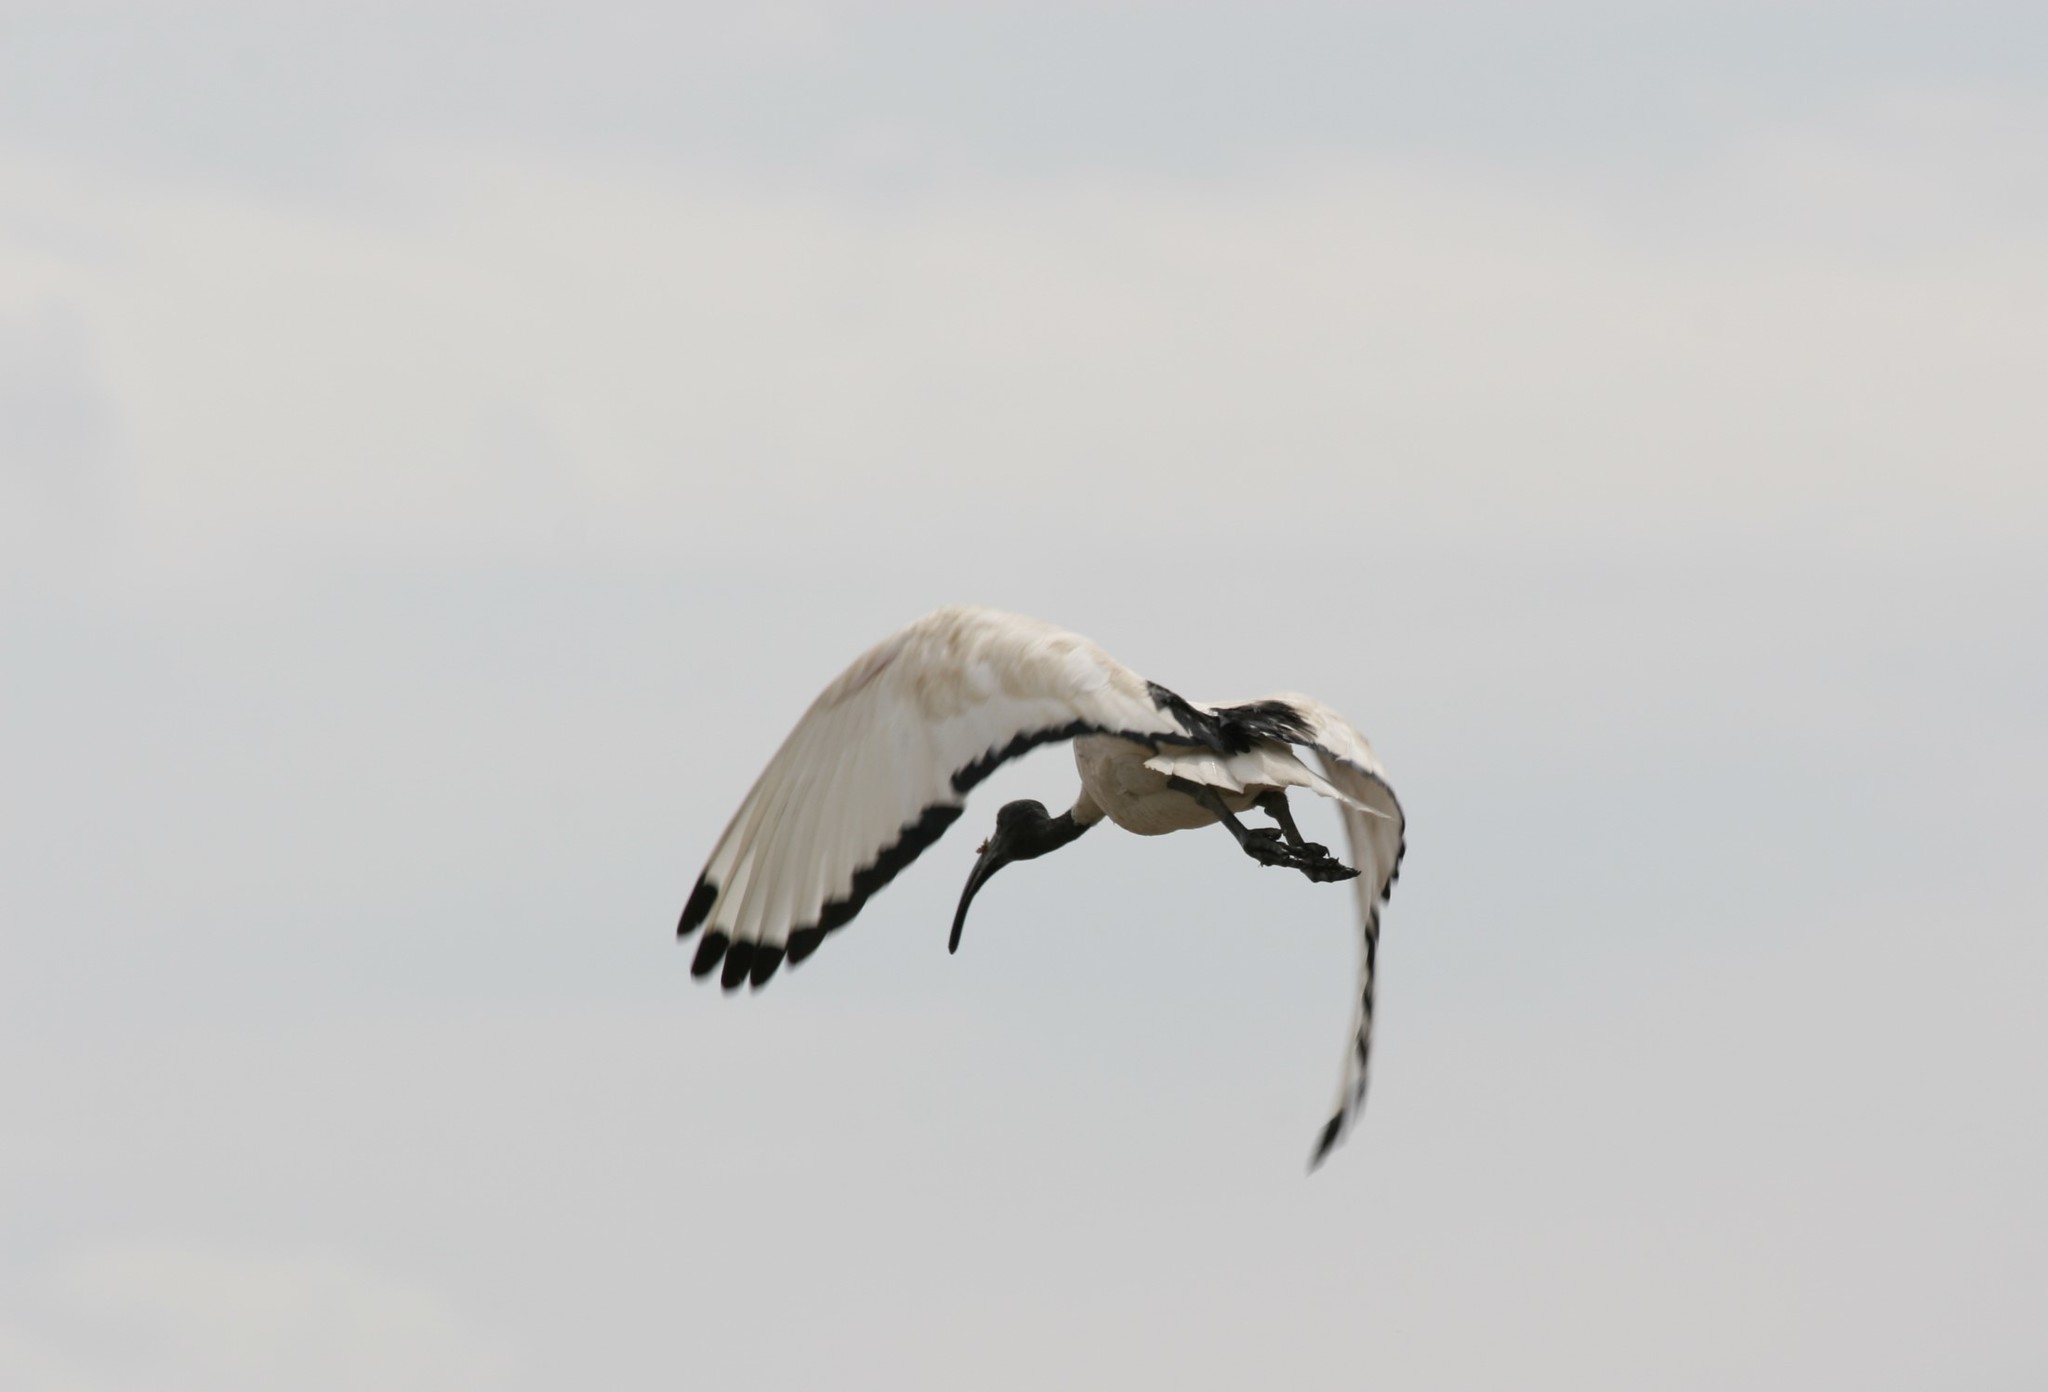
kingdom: Animalia
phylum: Chordata
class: Aves
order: Pelecaniformes
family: Threskiornithidae
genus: Threskiornis
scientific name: Threskiornis aethiopicus
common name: Sacred ibis
